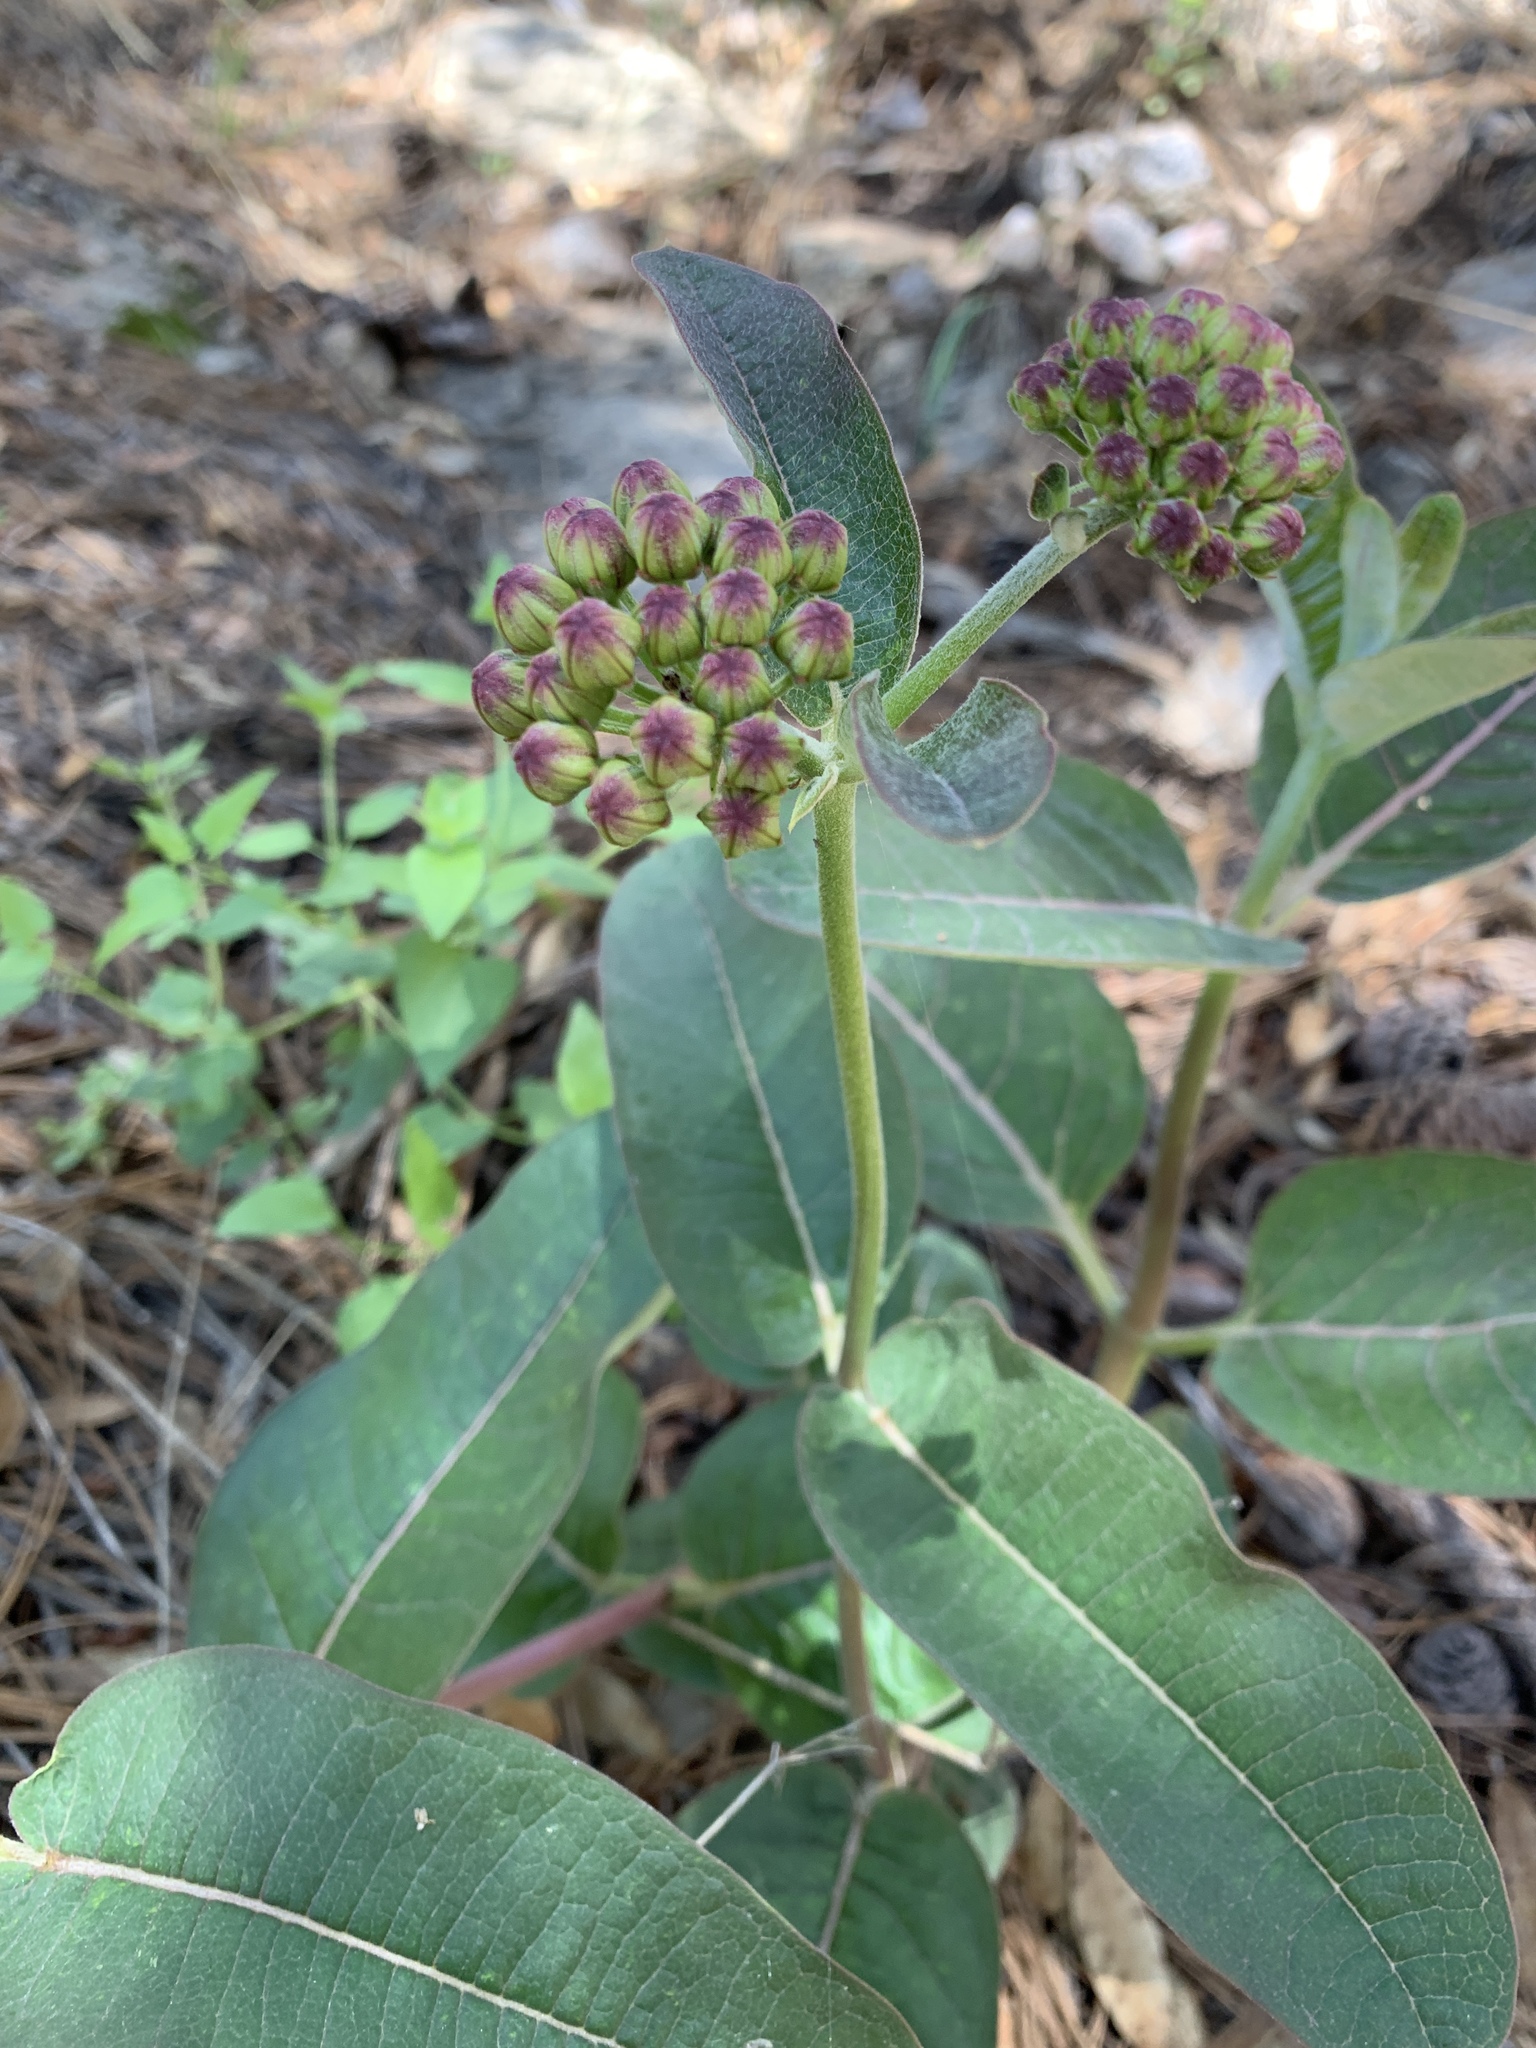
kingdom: Plantae
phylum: Tracheophyta
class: Magnoliopsida
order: Gentianales
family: Apocynaceae
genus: Asclepias
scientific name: Asclepias hypoleuca
